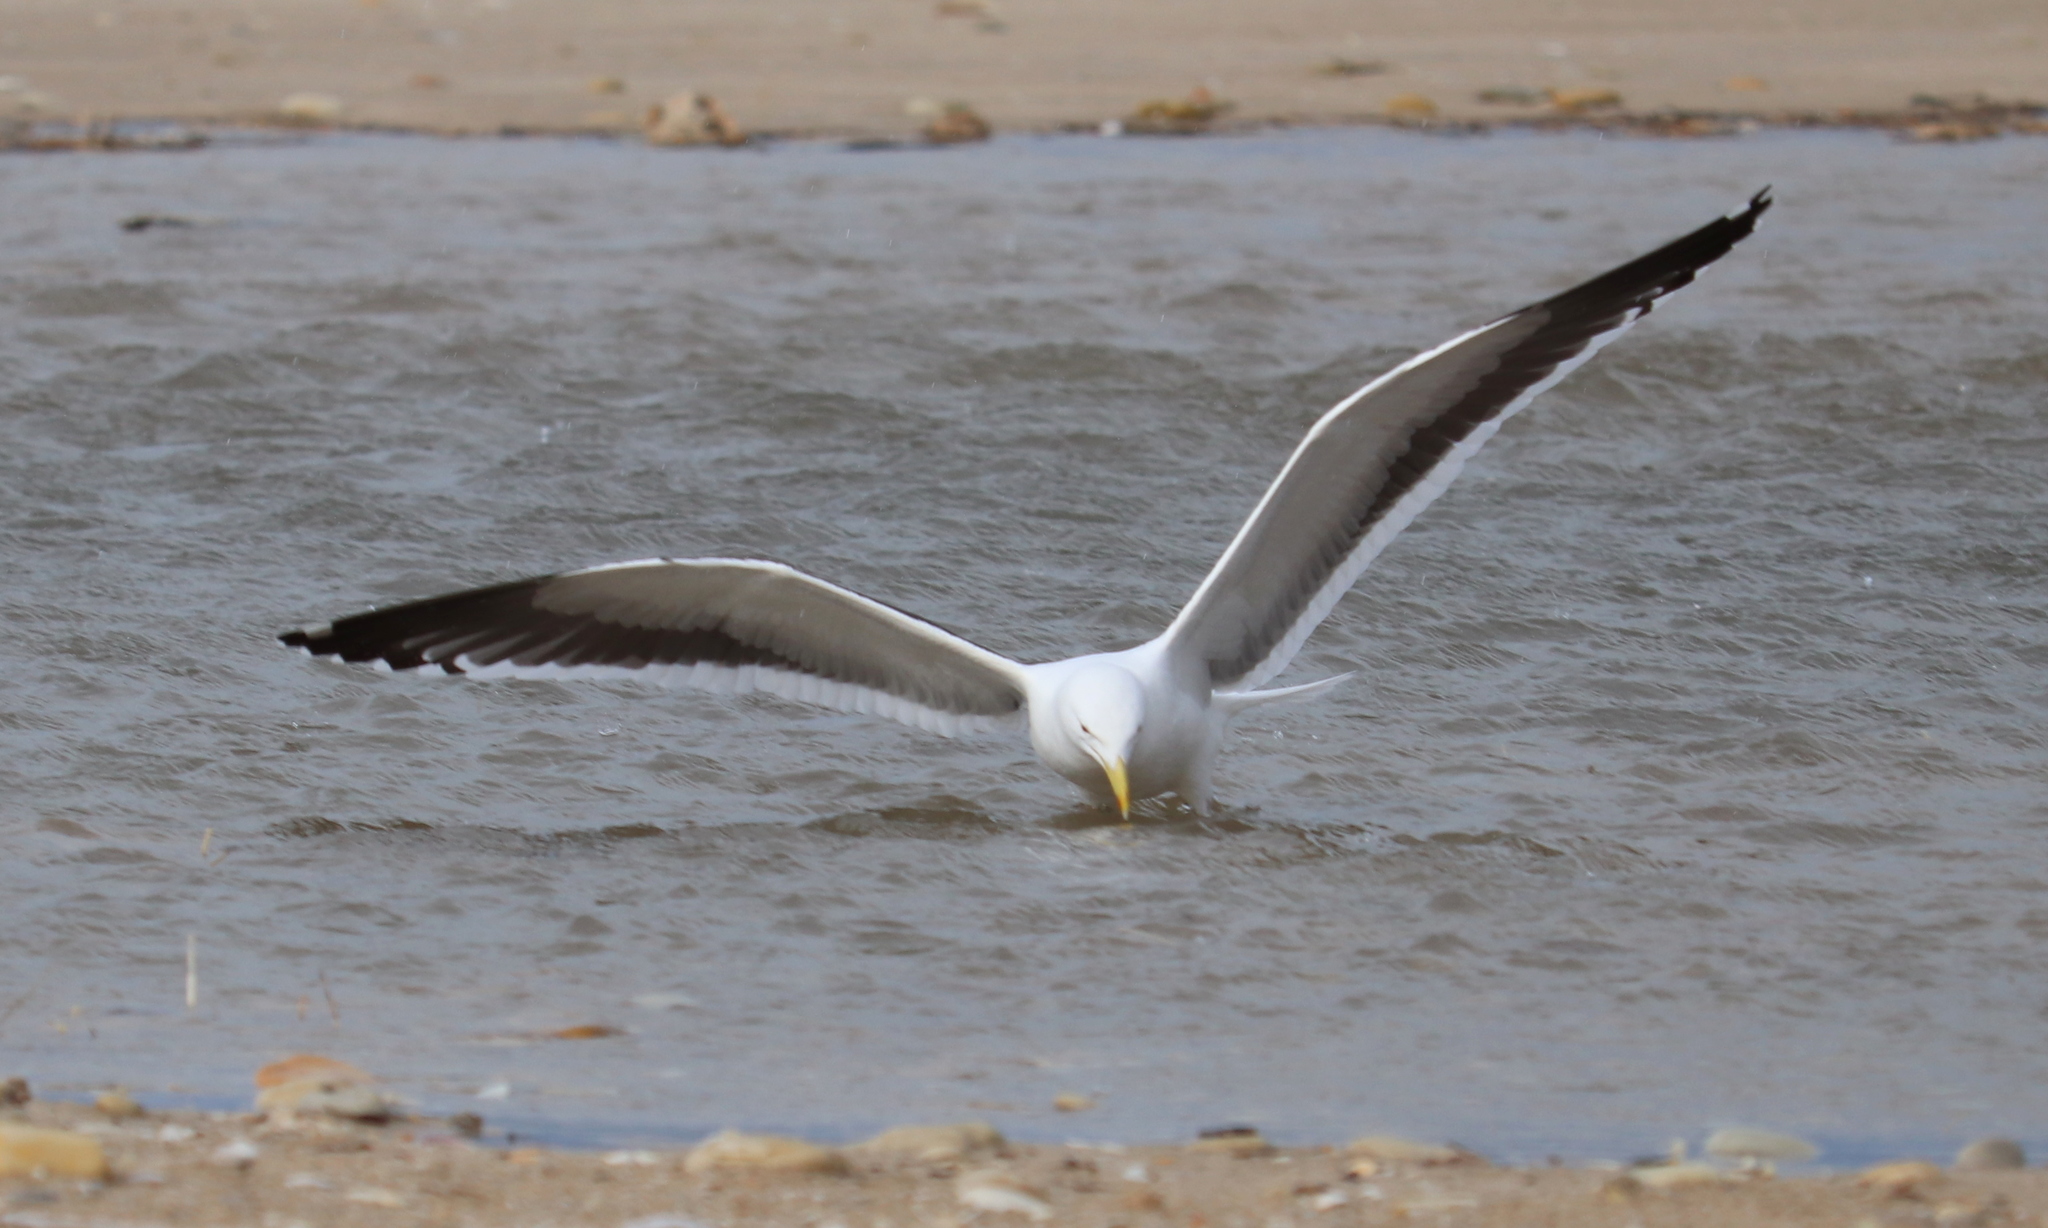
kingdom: Animalia
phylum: Chordata
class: Aves
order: Charadriiformes
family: Laridae
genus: Larus
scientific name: Larus dominicanus
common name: Kelp gull
